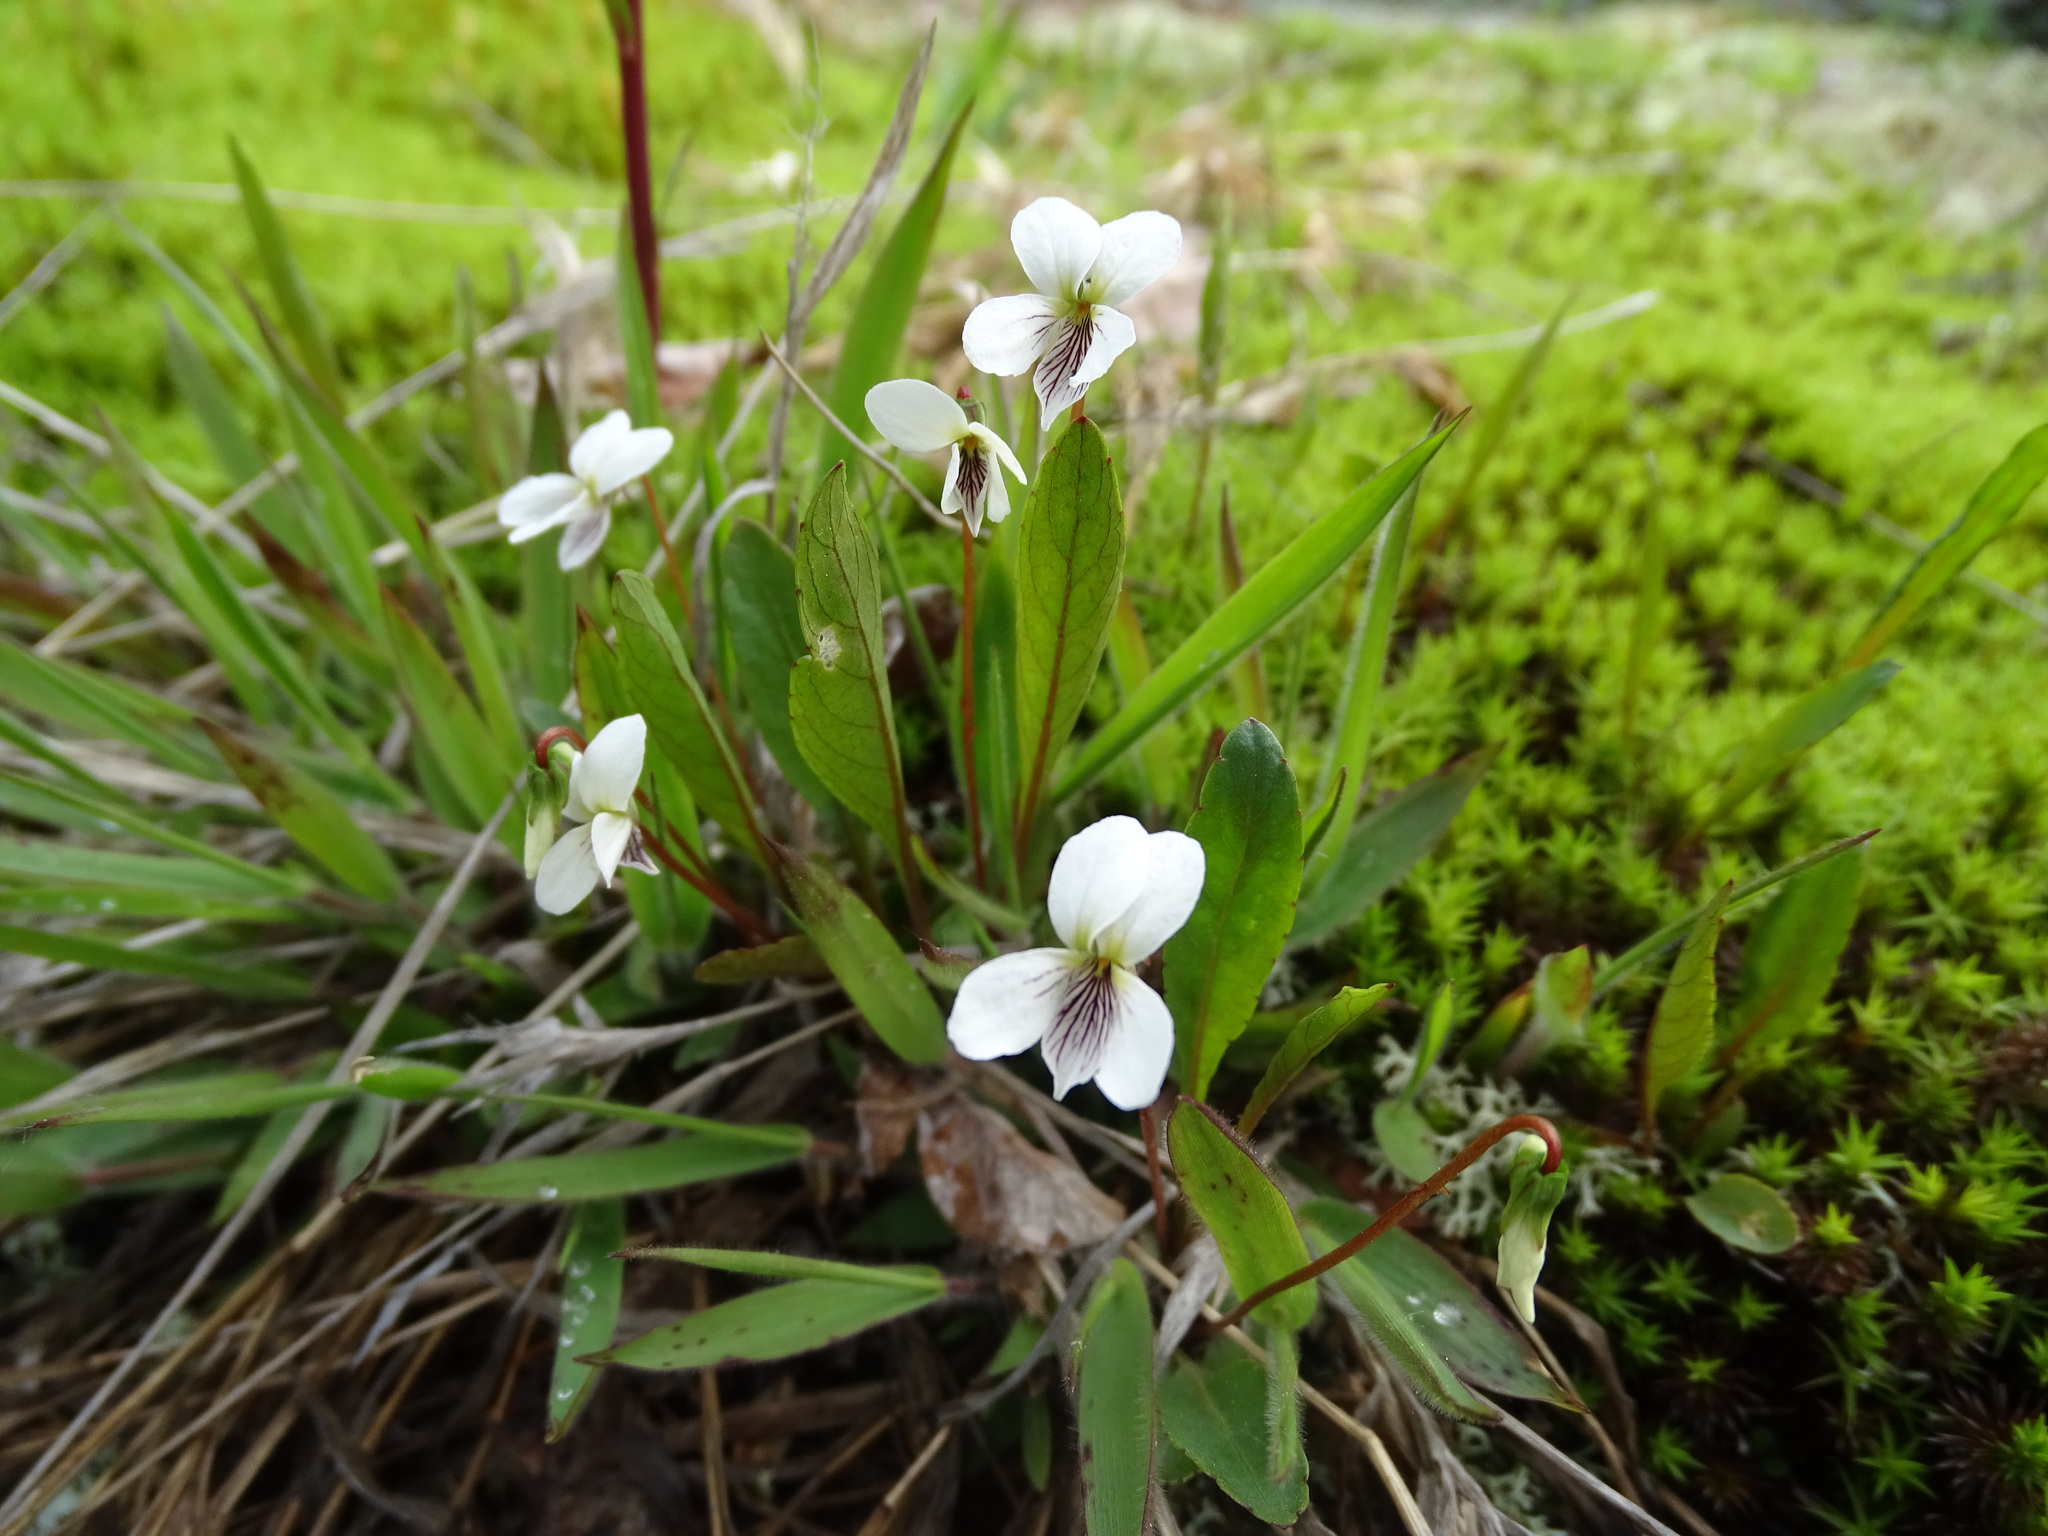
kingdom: Plantae
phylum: Tracheophyta
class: Magnoliopsida
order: Malpighiales
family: Violaceae
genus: Viola
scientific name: Viola lanceolata
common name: Bog white violet
